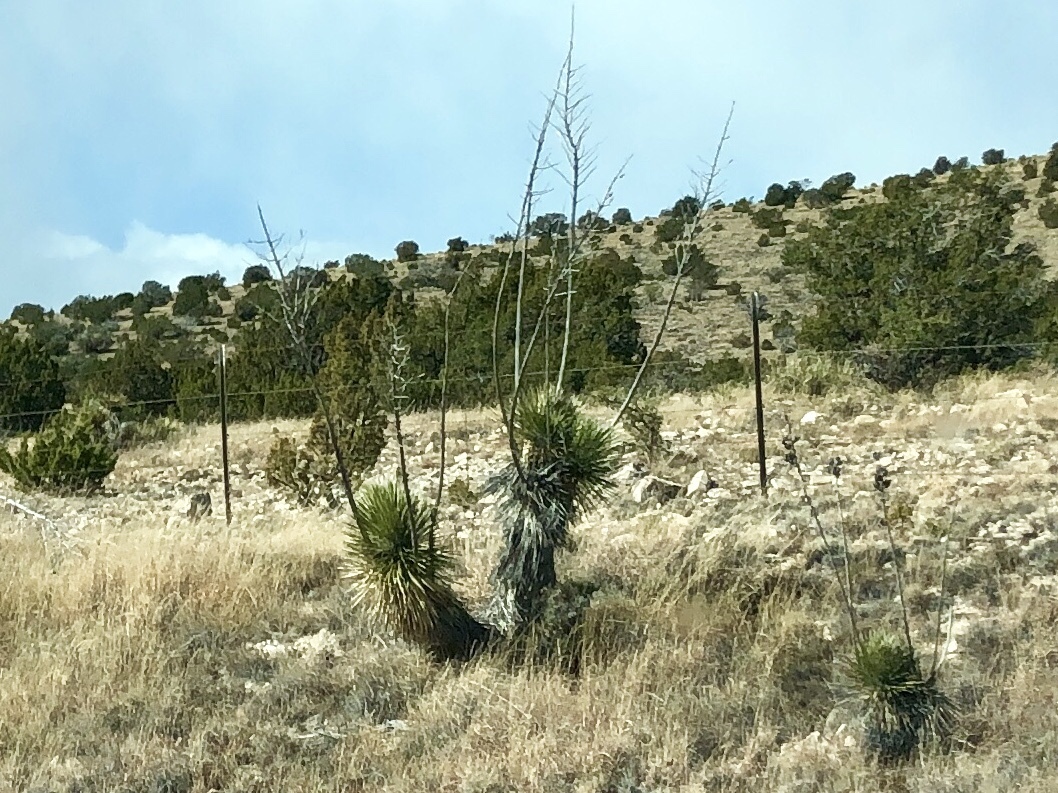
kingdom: Plantae
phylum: Tracheophyta
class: Liliopsida
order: Asparagales
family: Asparagaceae
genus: Yucca
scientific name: Yucca elata
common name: Palmella
